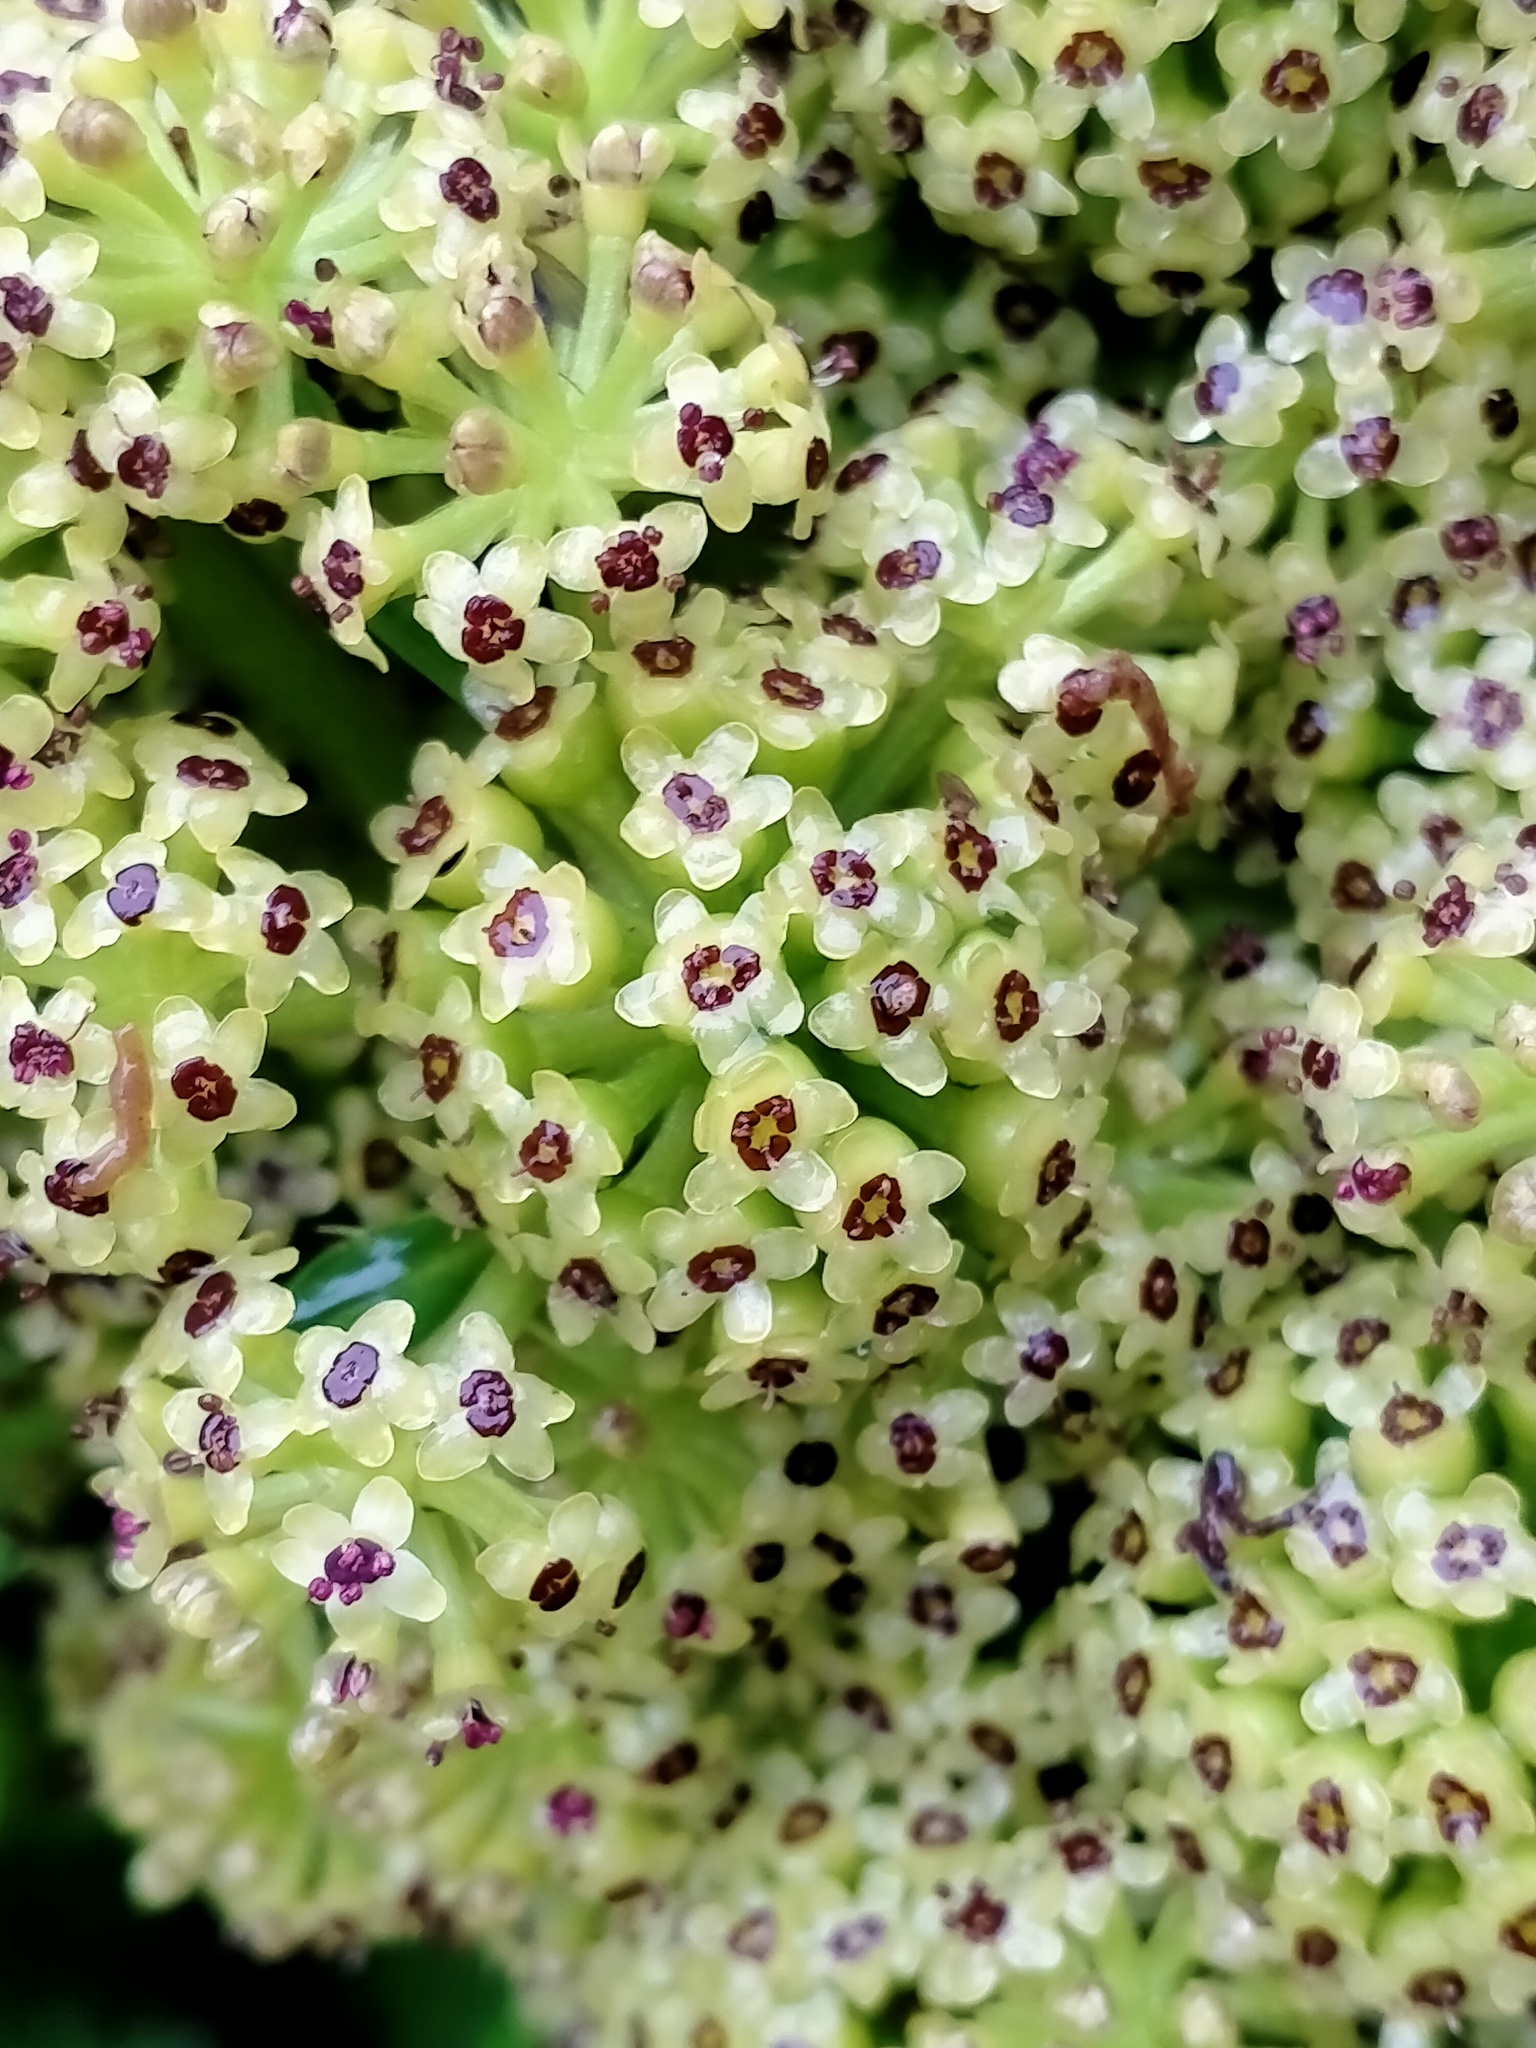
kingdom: Plantae
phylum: Tracheophyta
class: Magnoliopsida
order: Apiales
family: Apiaceae
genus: Azorella
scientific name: Azorella polaris
